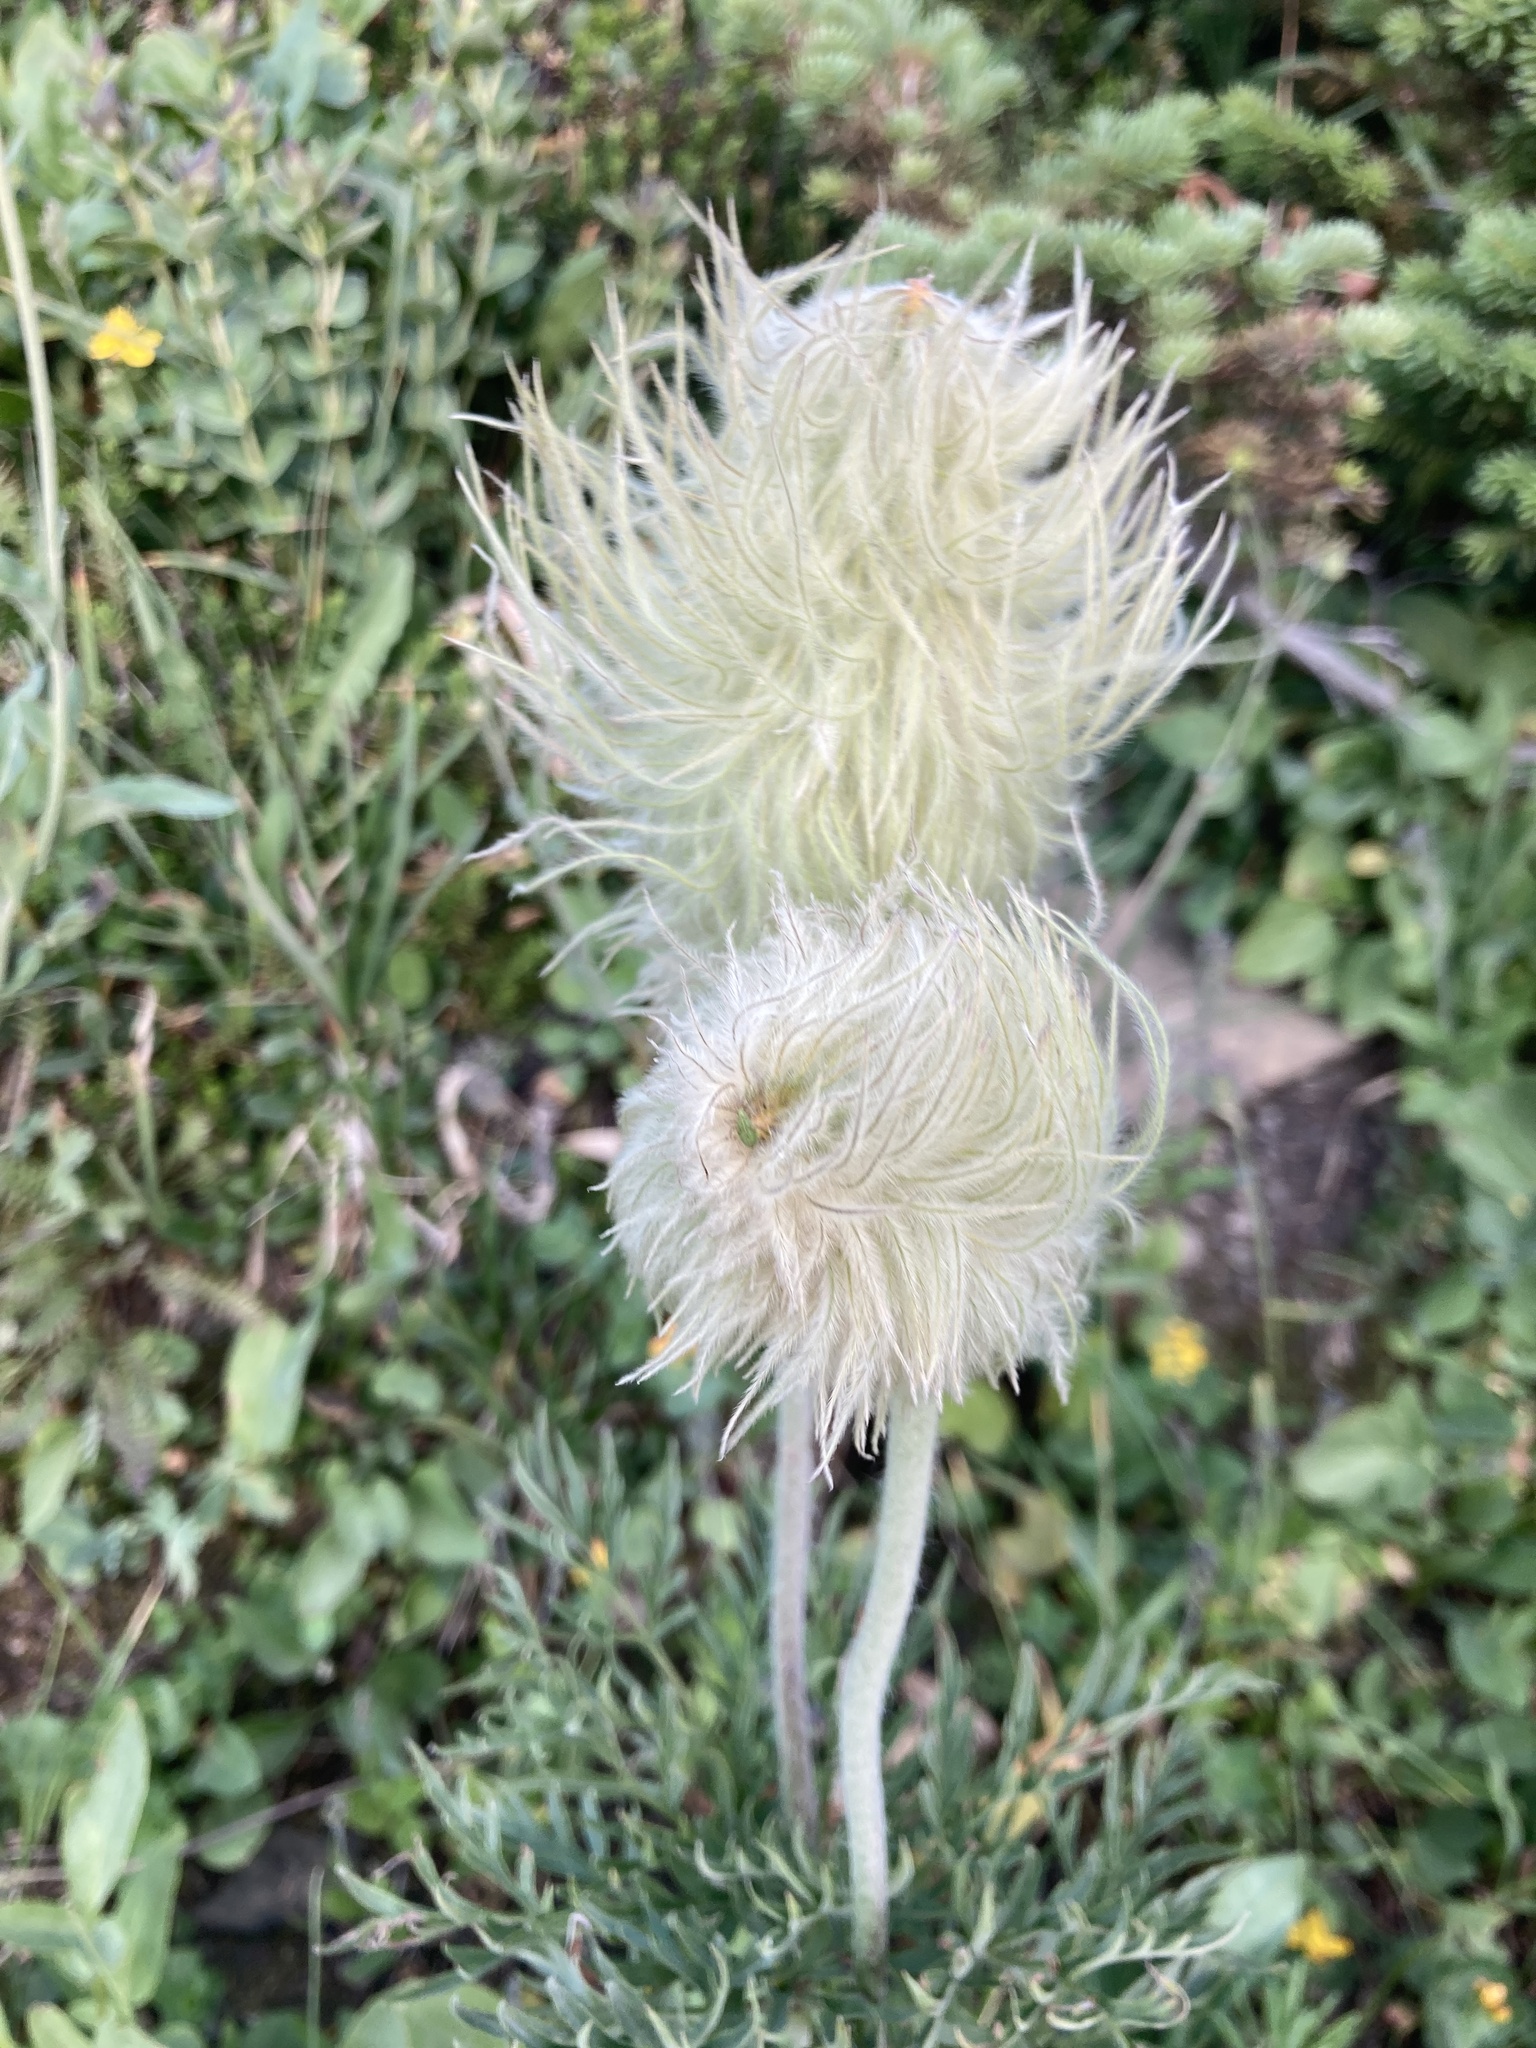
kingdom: Plantae
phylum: Tracheophyta
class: Magnoliopsida
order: Ranunculales
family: Ranunculaceae
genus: Pulsatilla
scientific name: Pulsatilla occidentalis
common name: Mountain pasqueflower
